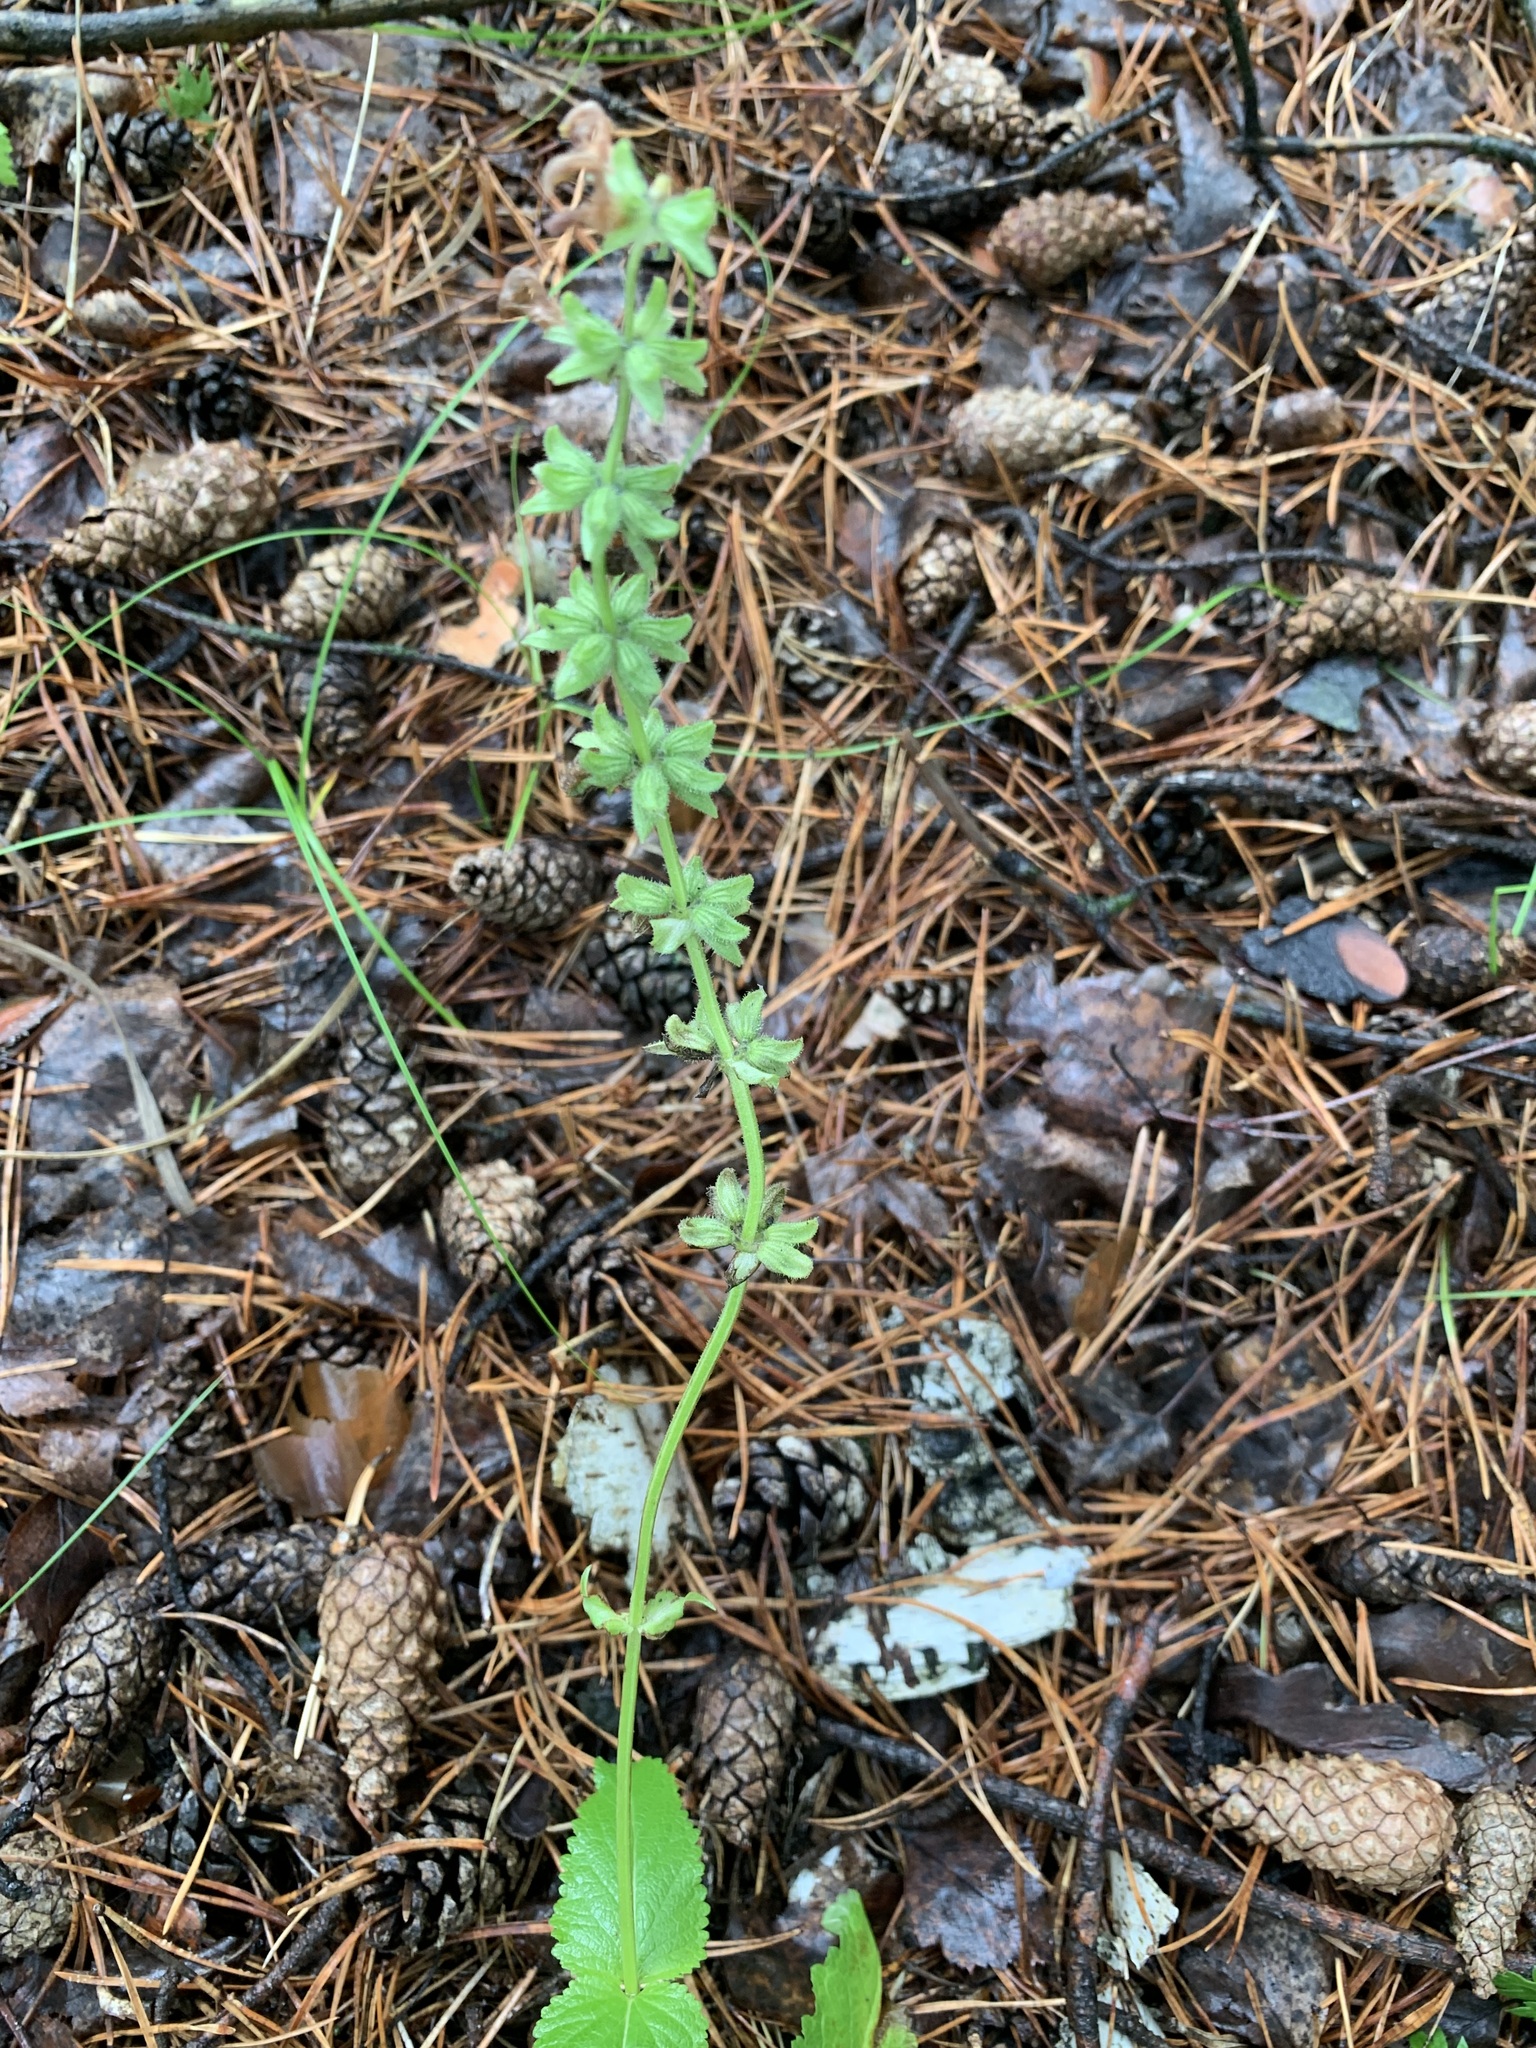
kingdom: Plantae
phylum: Tracheophyta
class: Magnoliopsida
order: Lamiales
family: Lamiaceae
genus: Salvia
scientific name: Salvia dumetorum
